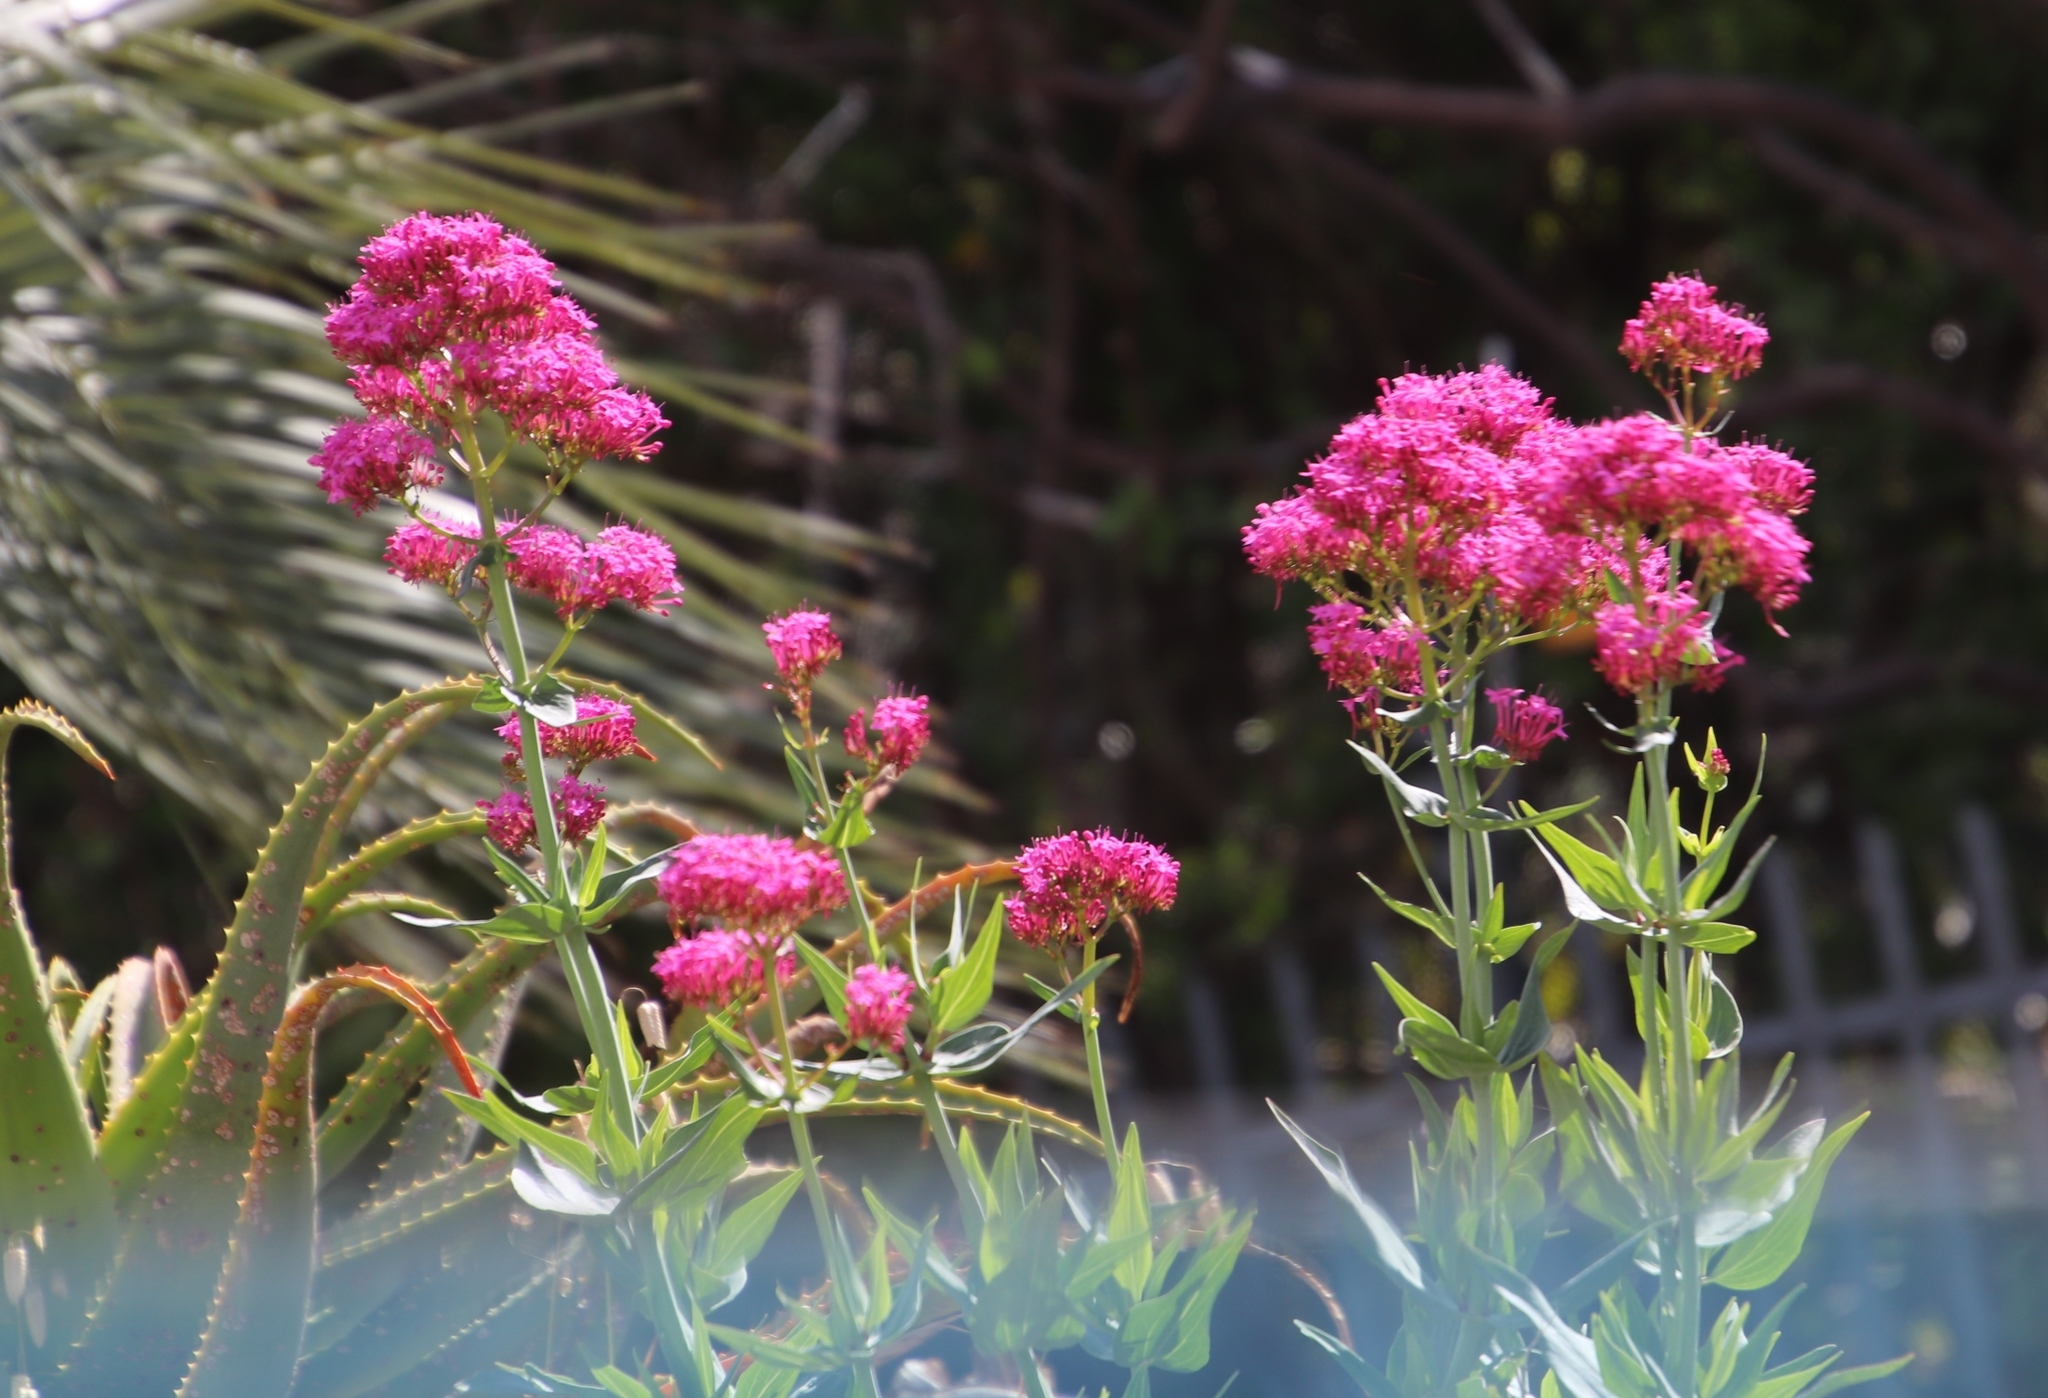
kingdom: Plantae
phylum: Tracheophyta
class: Magnoliopsida
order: Dipsacales
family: Caprifoliaceae
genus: Centranthus
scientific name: Centranthus ruber
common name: Red valerian
